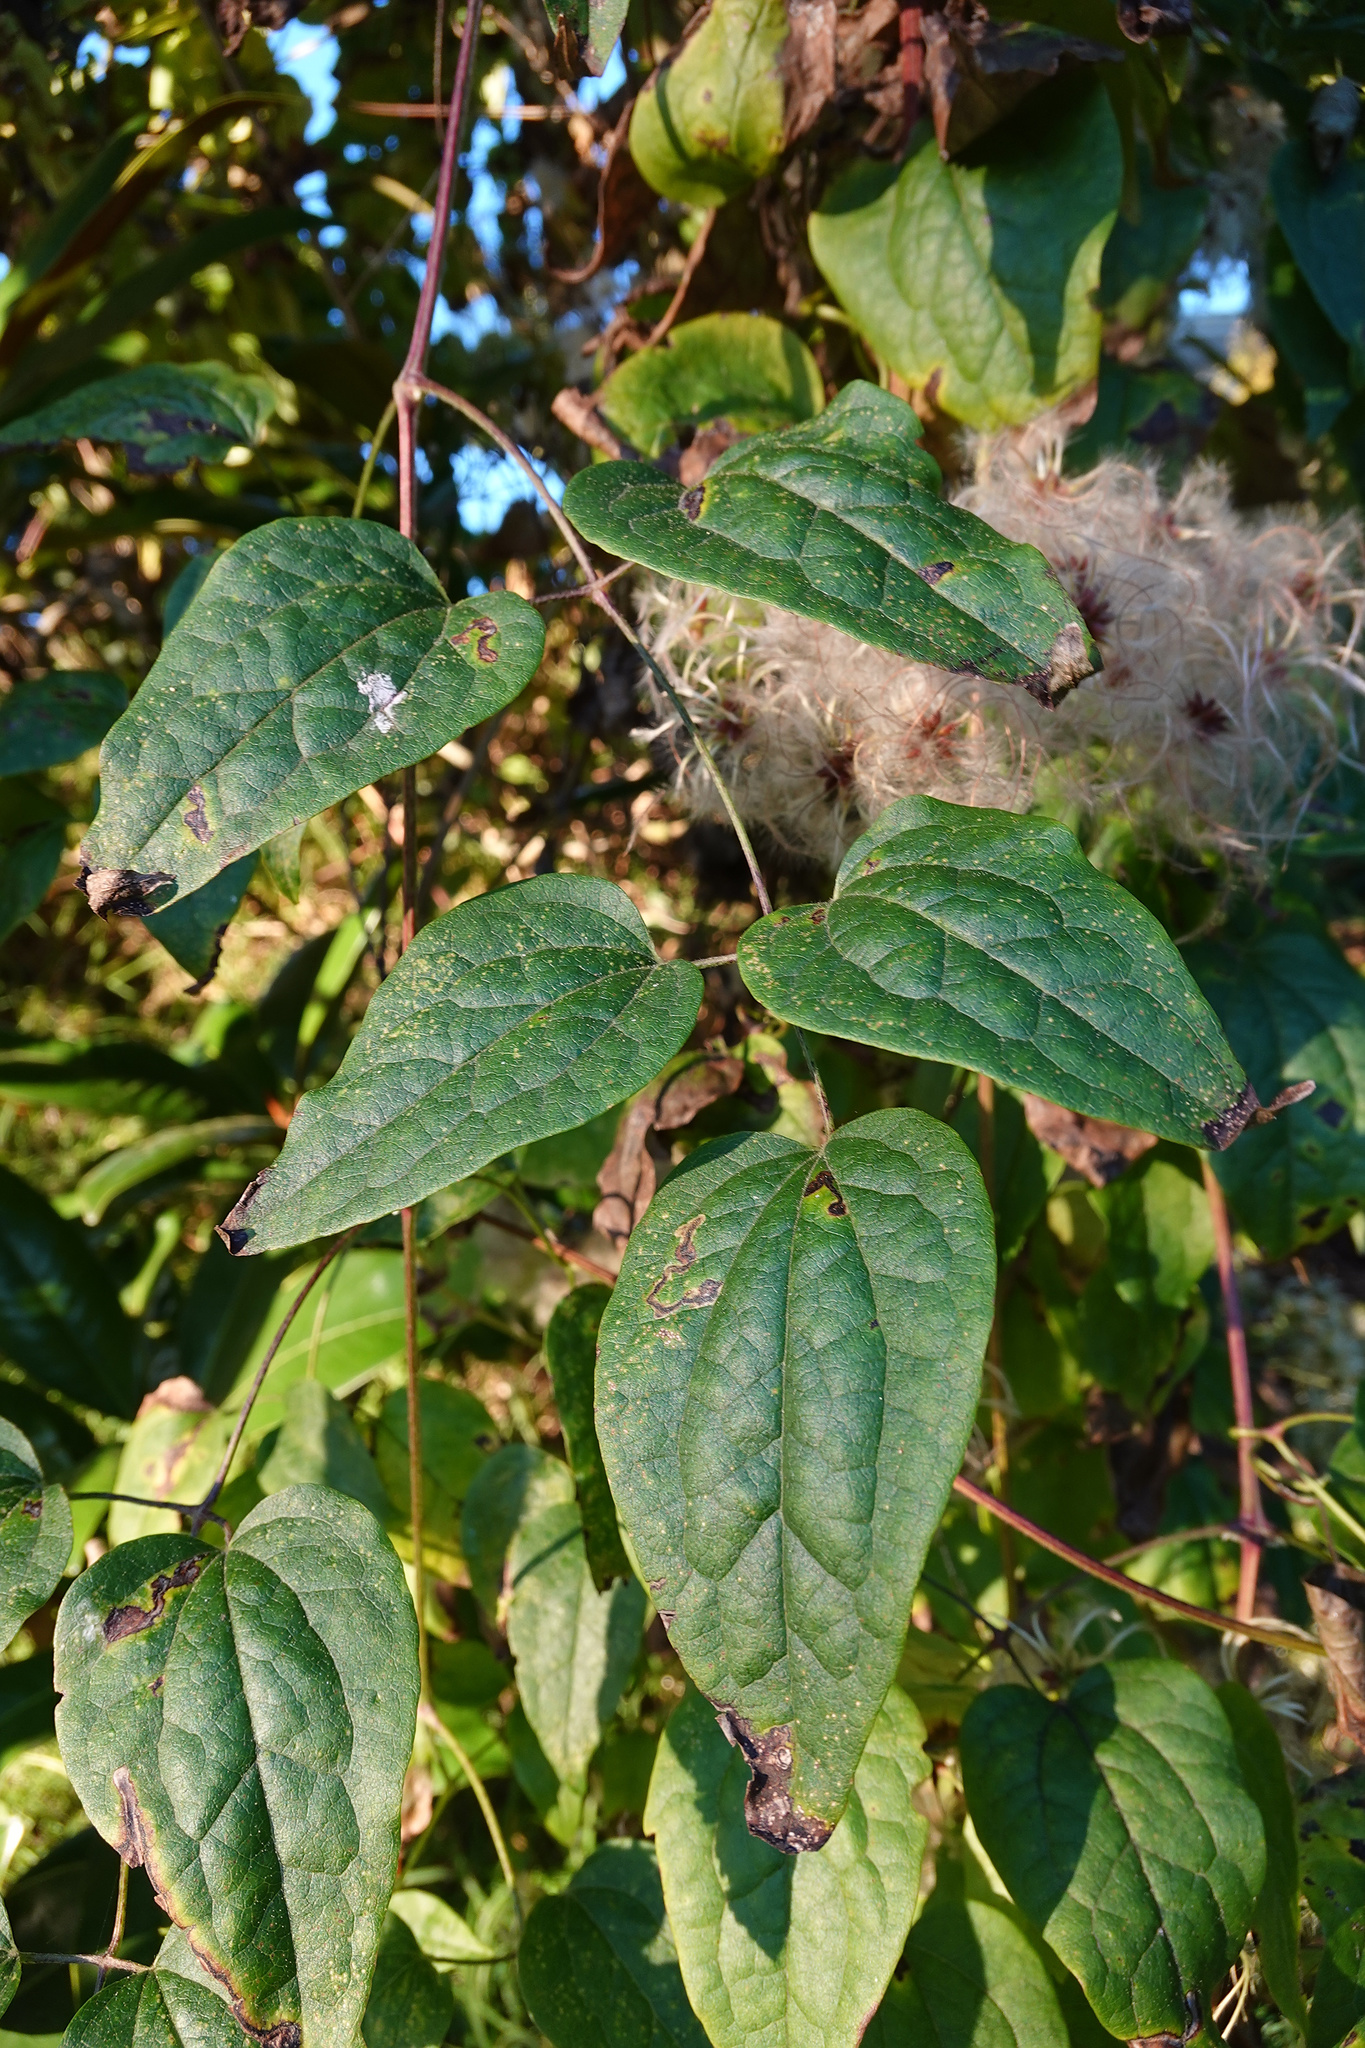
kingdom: Animalia
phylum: Arthropoda
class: Insecta
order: Diptera
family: Agromyzidae
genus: Phytomyza
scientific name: Phytomyza vitalbae
